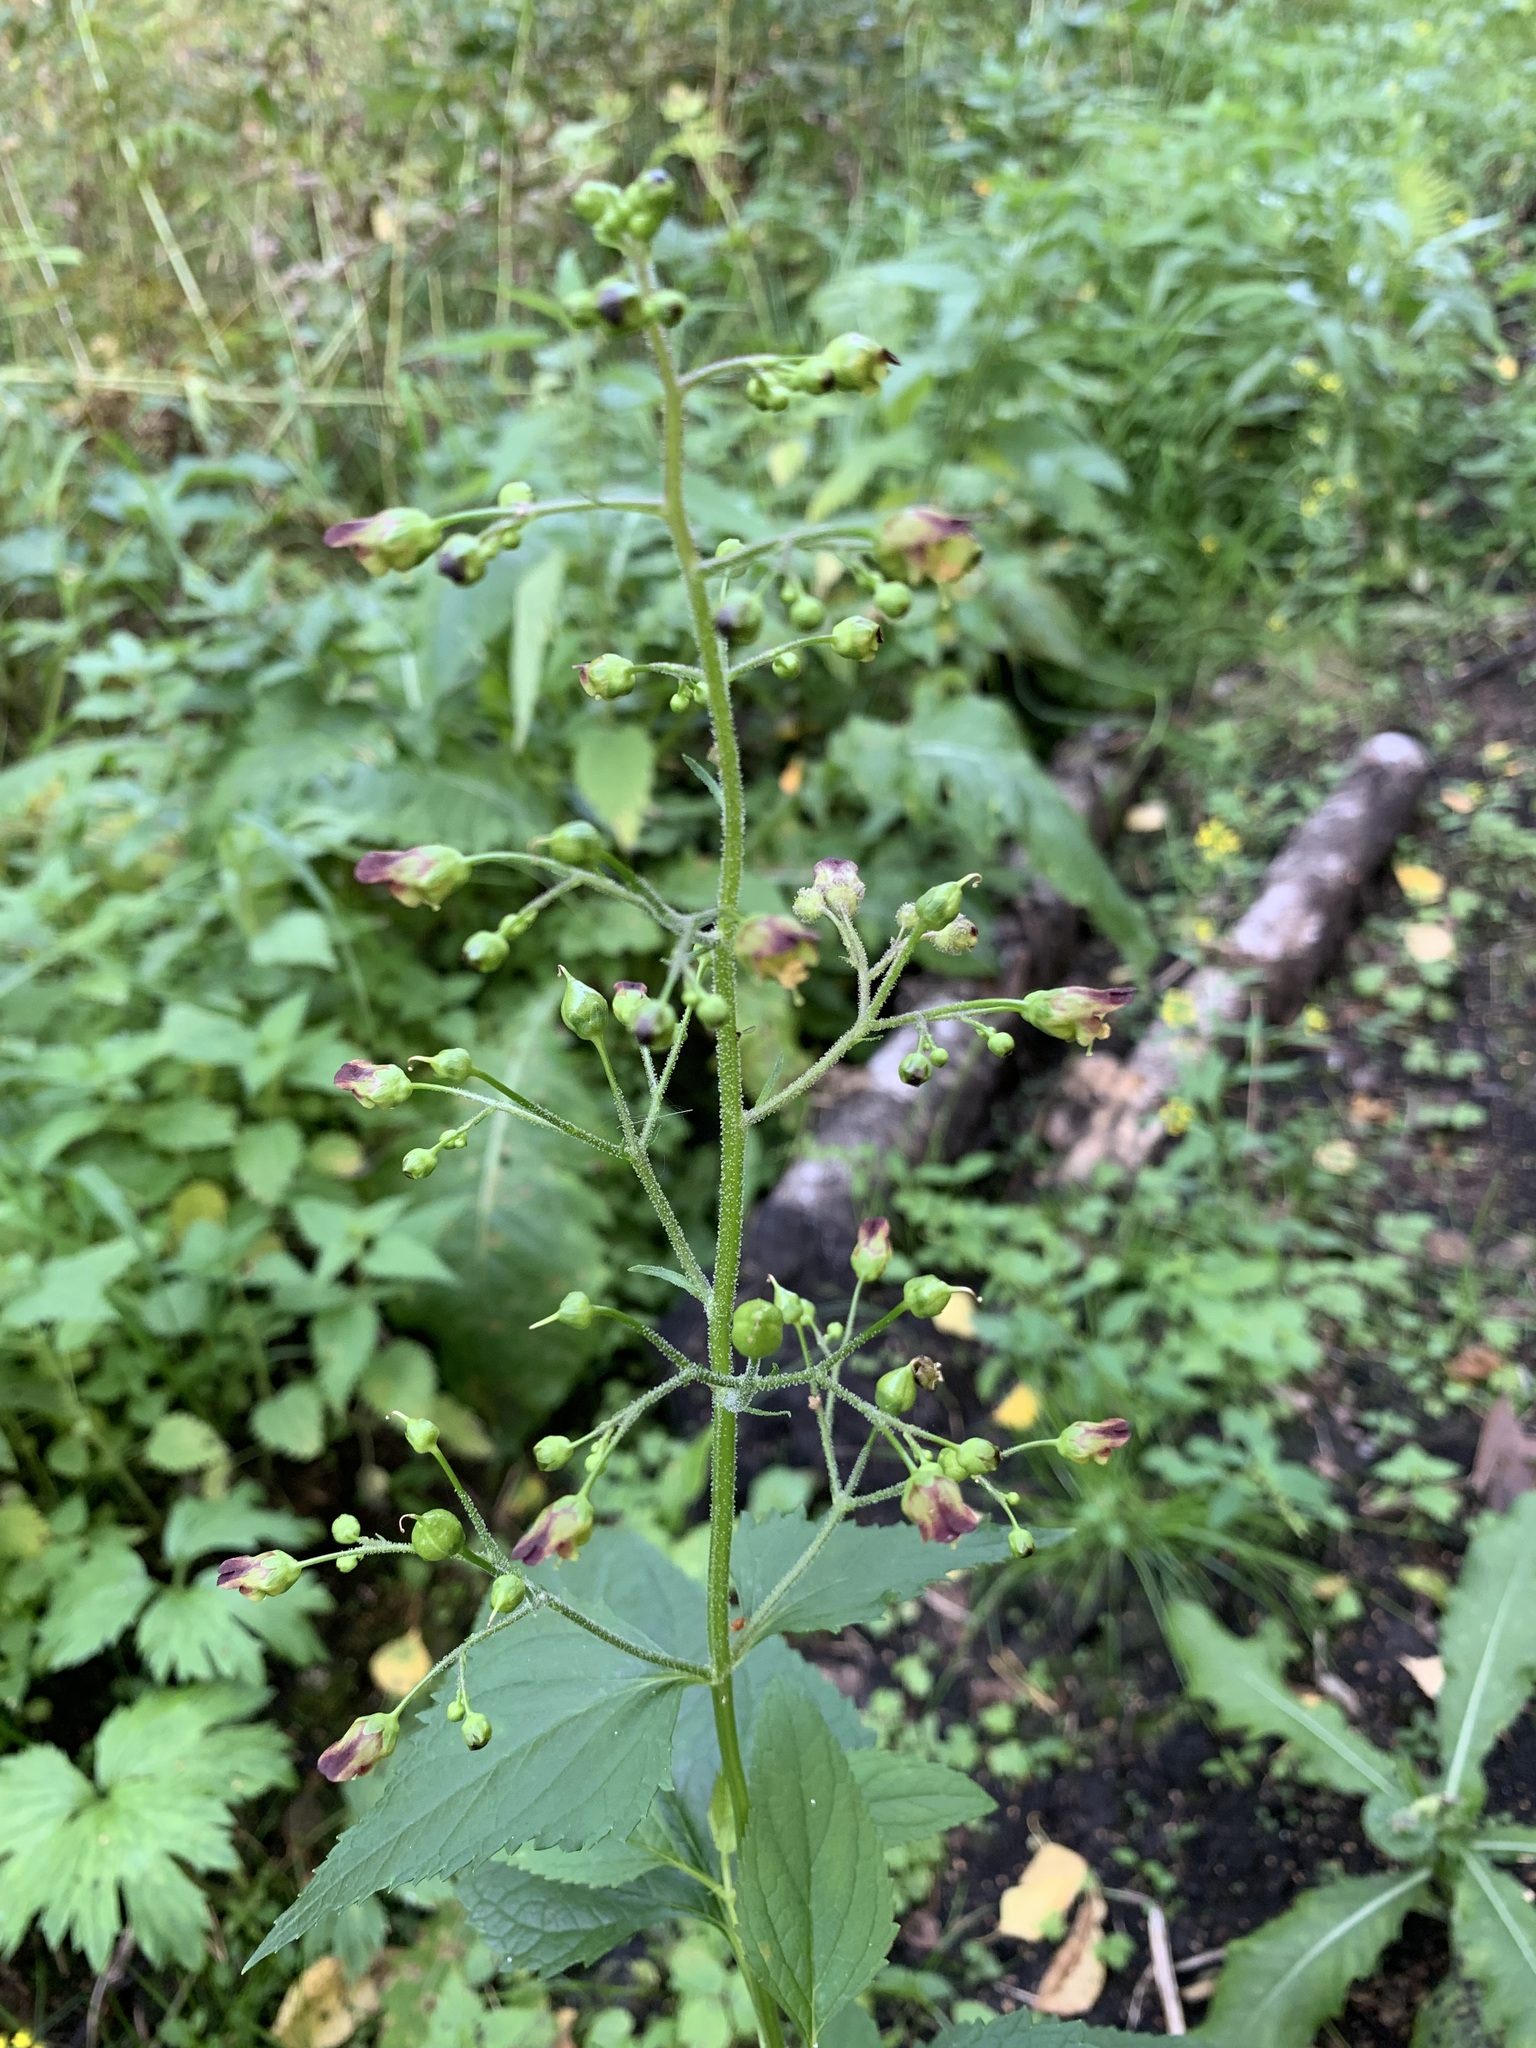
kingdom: Plantae
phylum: Tracheophyta
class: Magnoliopsida
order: Lamiales
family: Scrophulariaceae
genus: Scrophularia
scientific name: Scrophularia nodosa
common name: Common figwort
